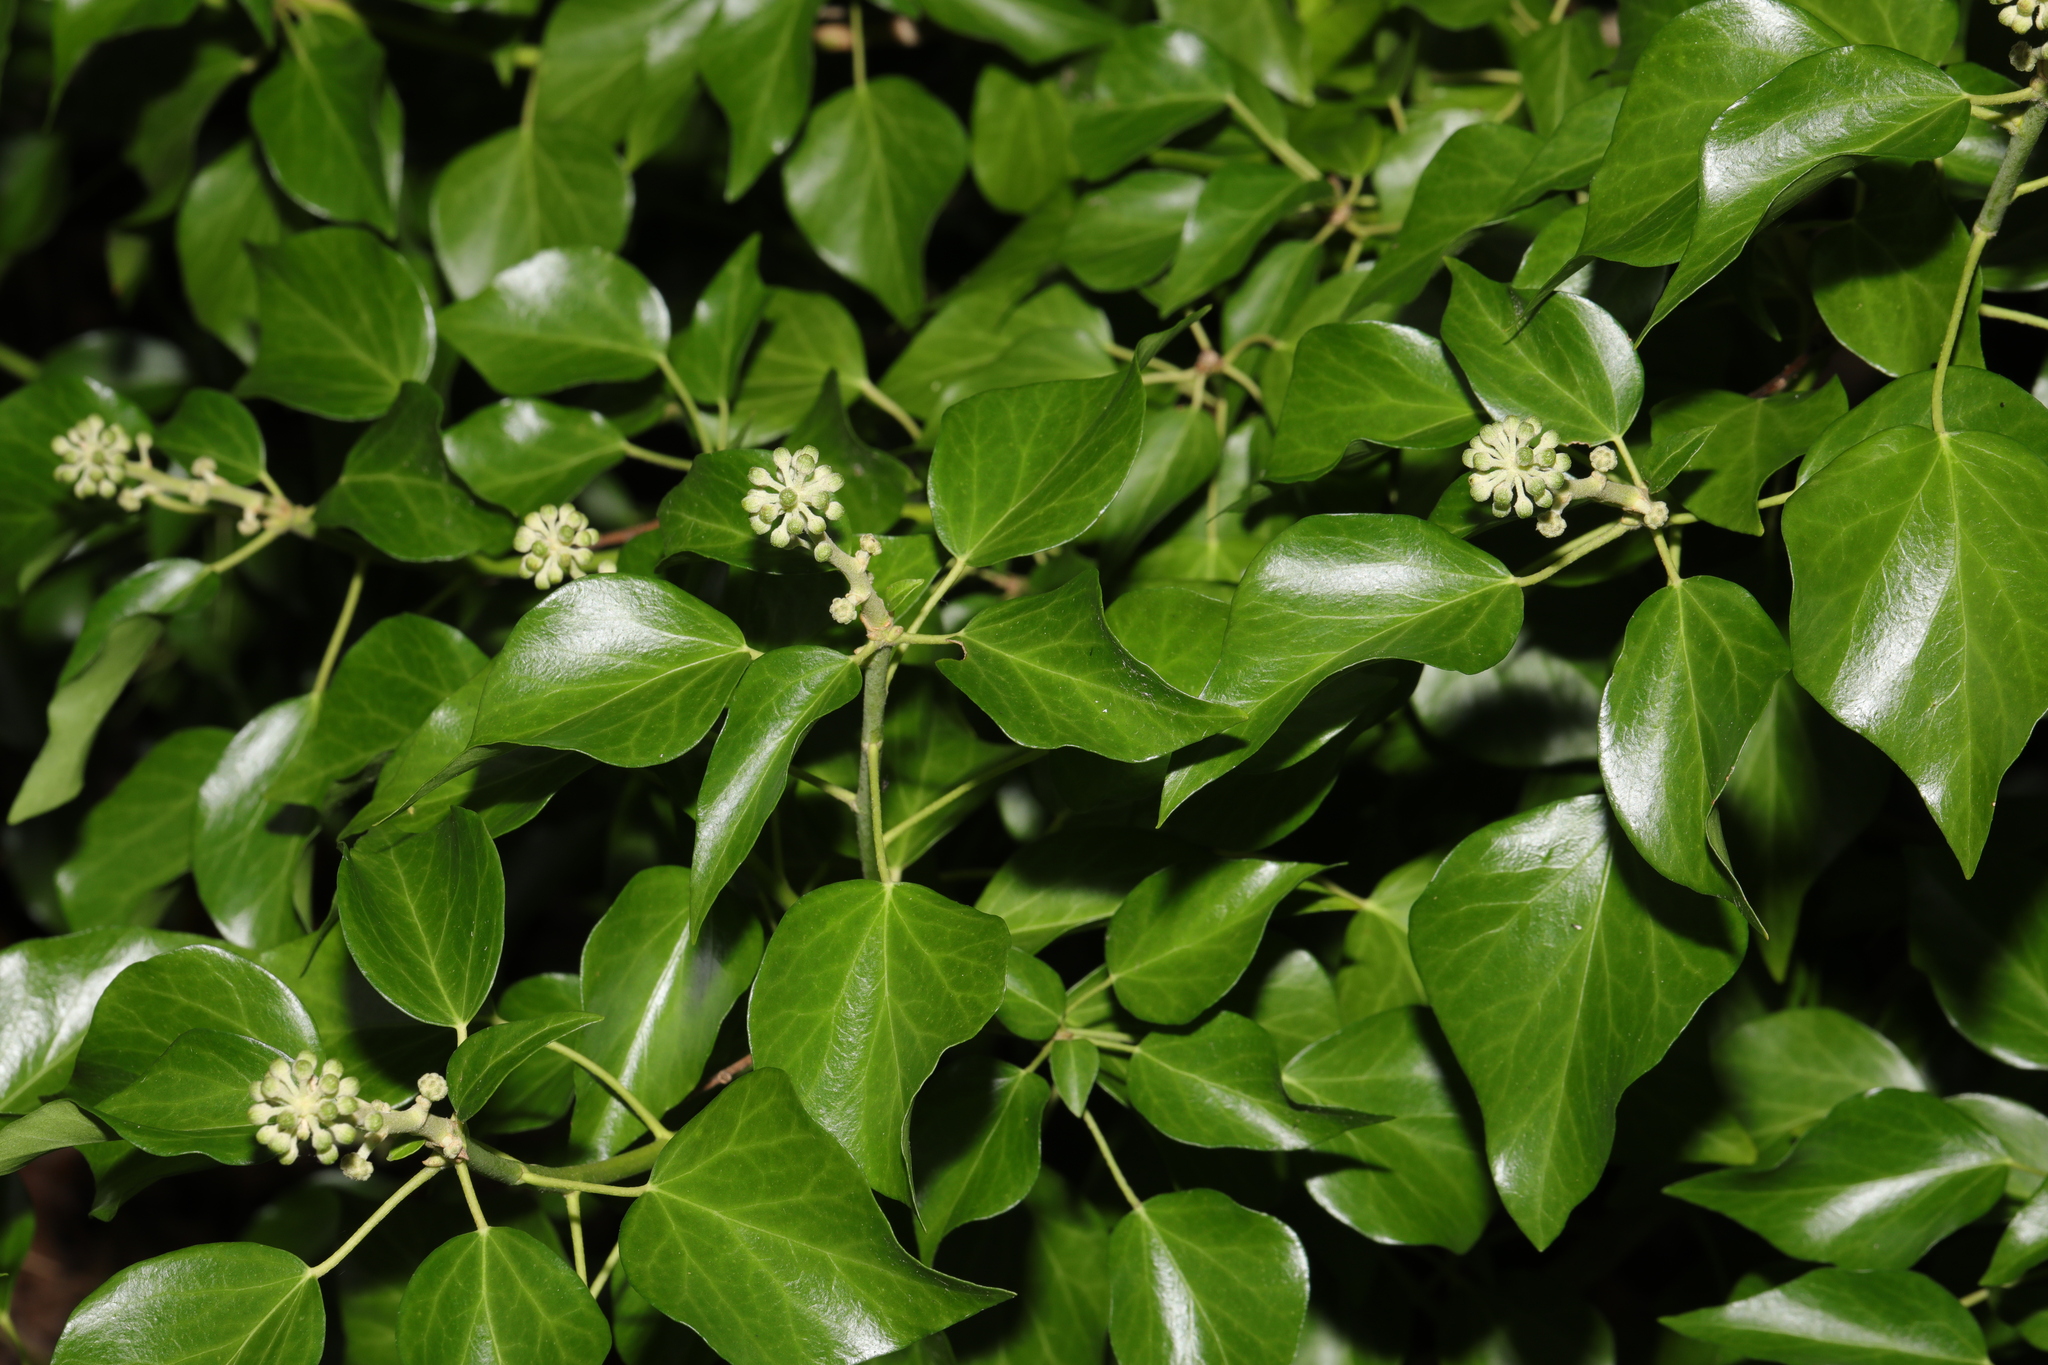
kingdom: Plantae
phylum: Tracheophyta
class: Magnoliopsida
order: Apiales
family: Araliaceae
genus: Hedera
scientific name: Hedera helix
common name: Ivy
